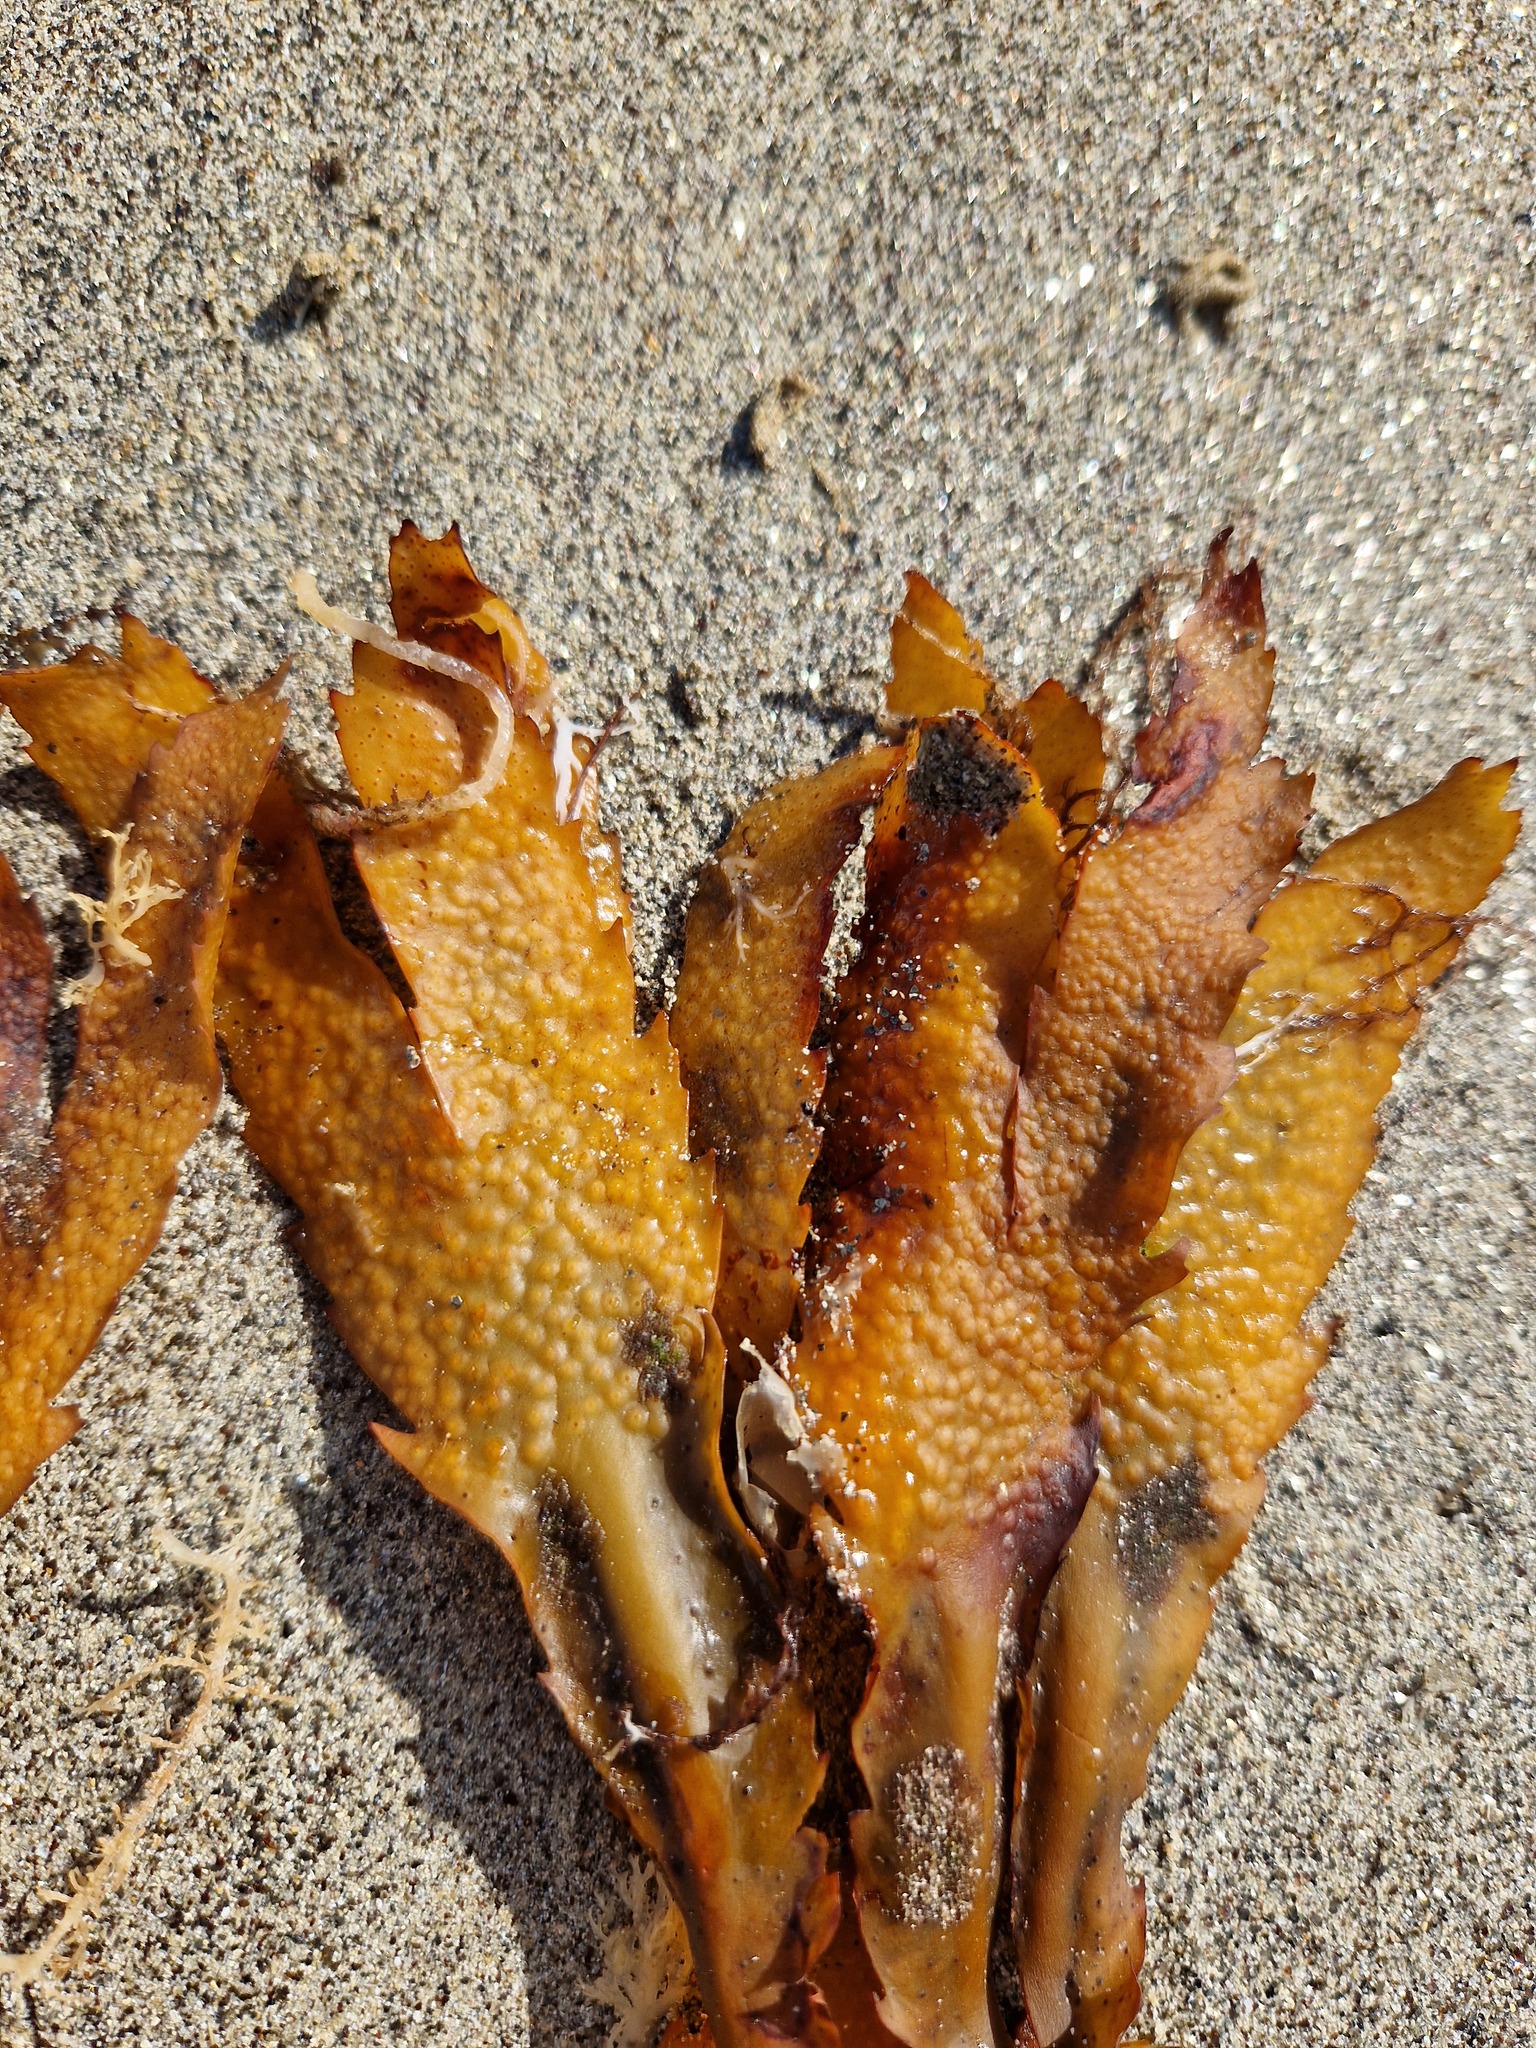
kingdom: Chromista
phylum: Ochrophyta
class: Phaeophyceae
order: Fucales
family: Fucaceae
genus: Fucus
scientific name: Fucus serratus
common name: Toothed wrack
